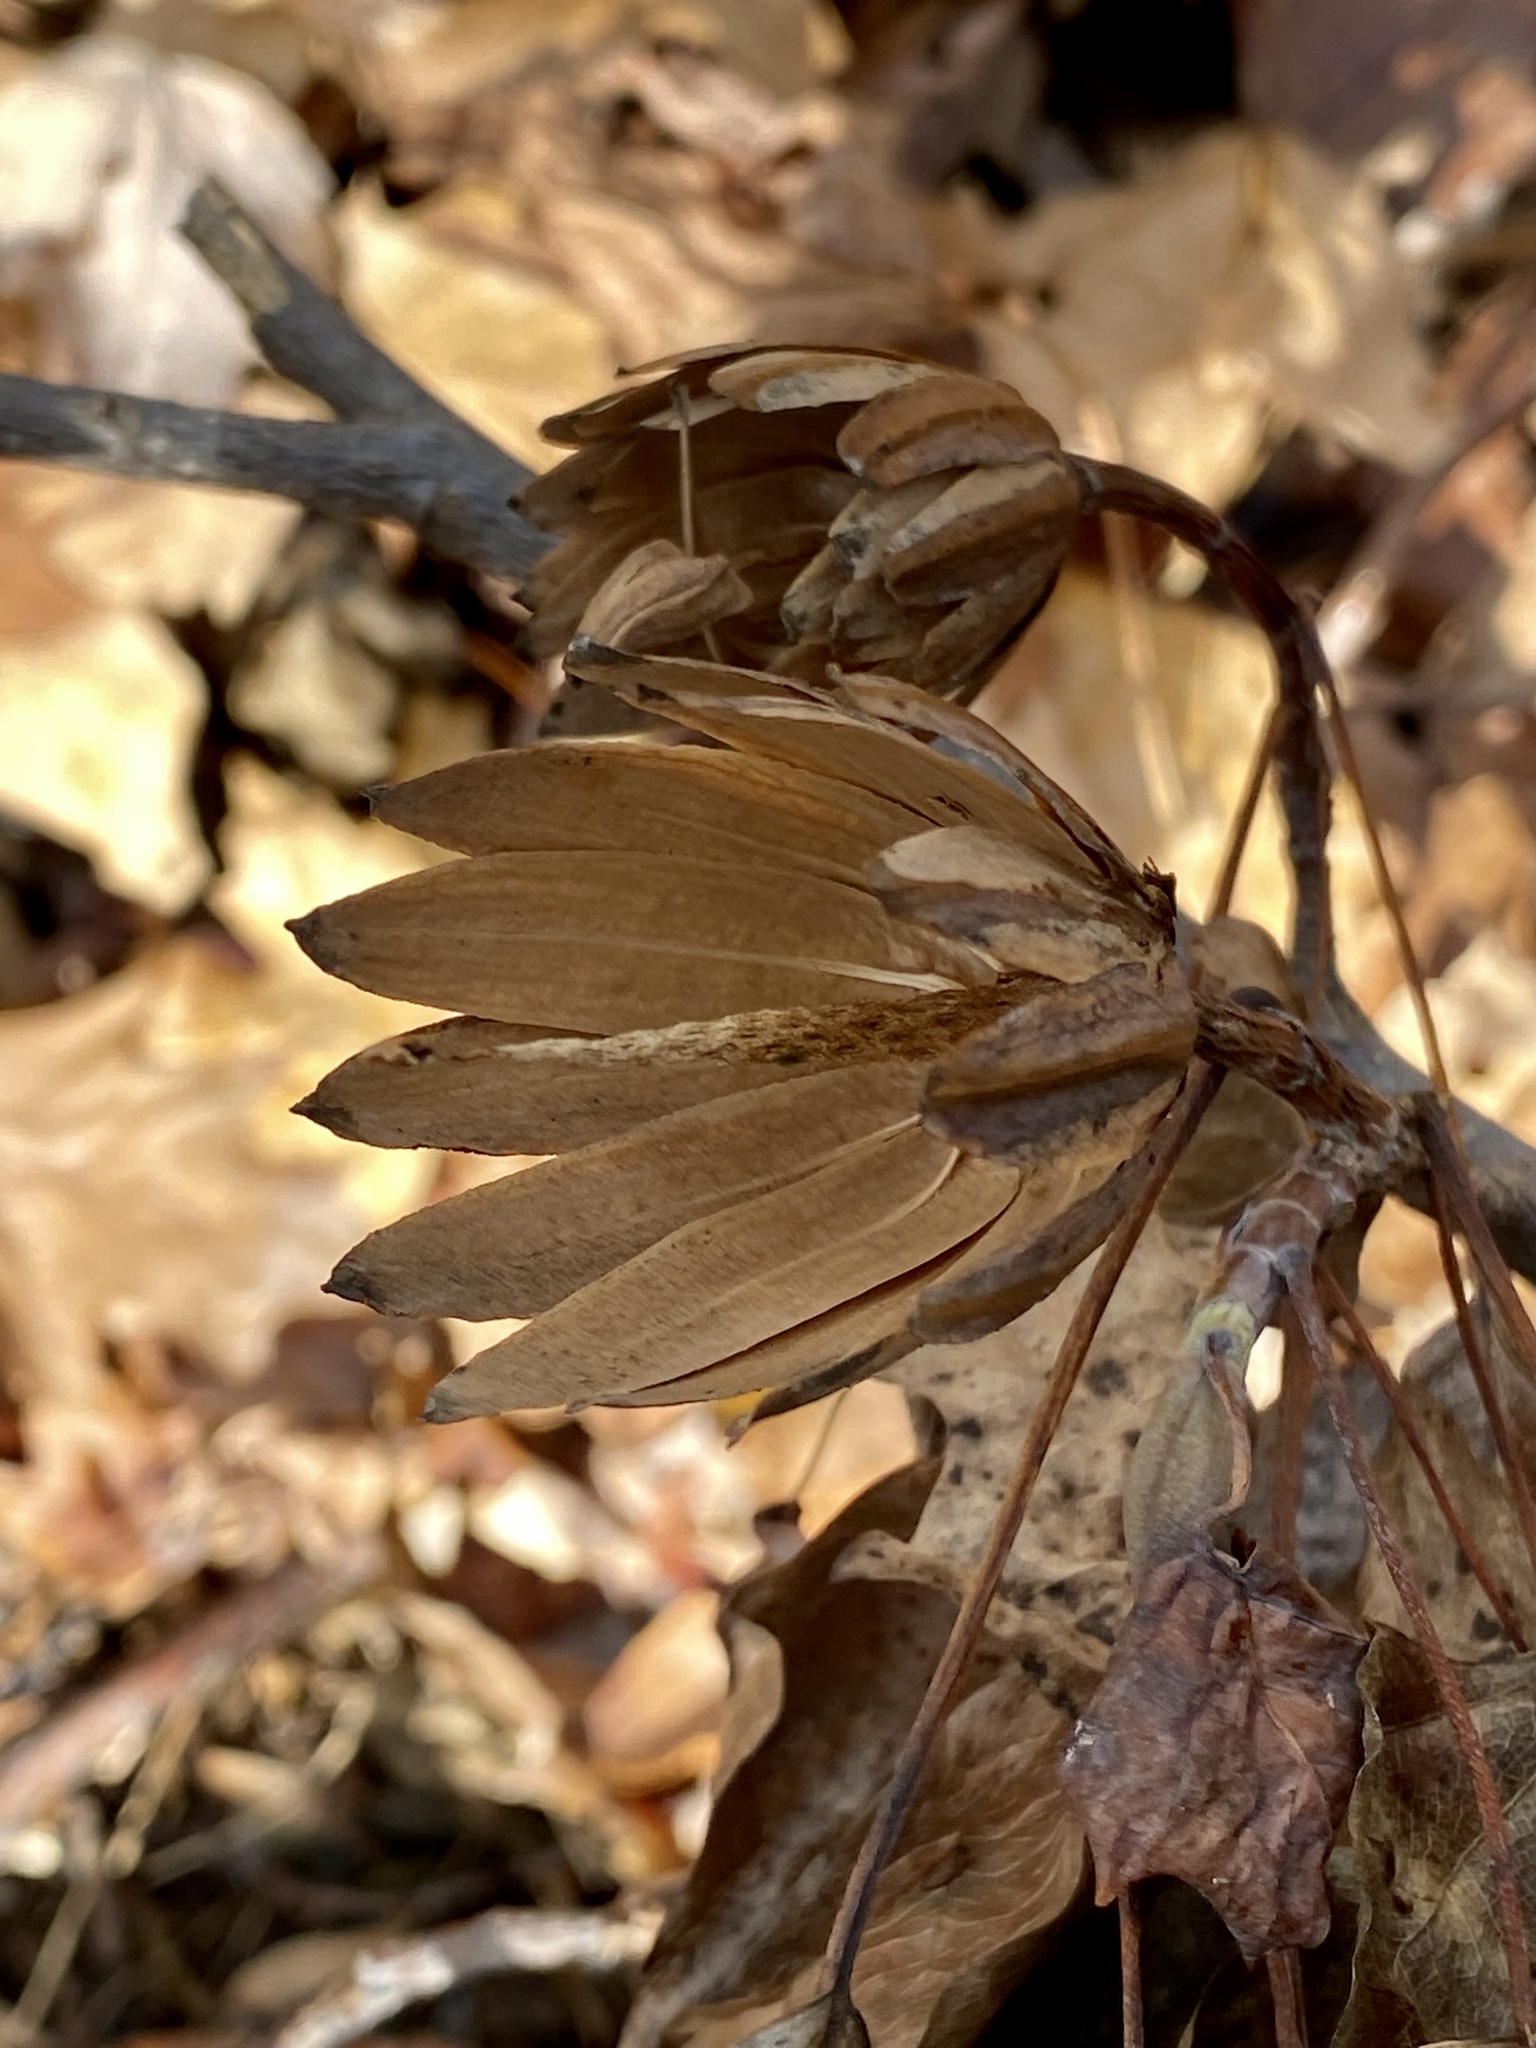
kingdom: Plantae
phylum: Tracheophyta
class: Magnoliopsida
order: Magnoliales
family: Magnoliaceae
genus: Liriodendron
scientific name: Liriodendron tulipifera
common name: Tulip tree
